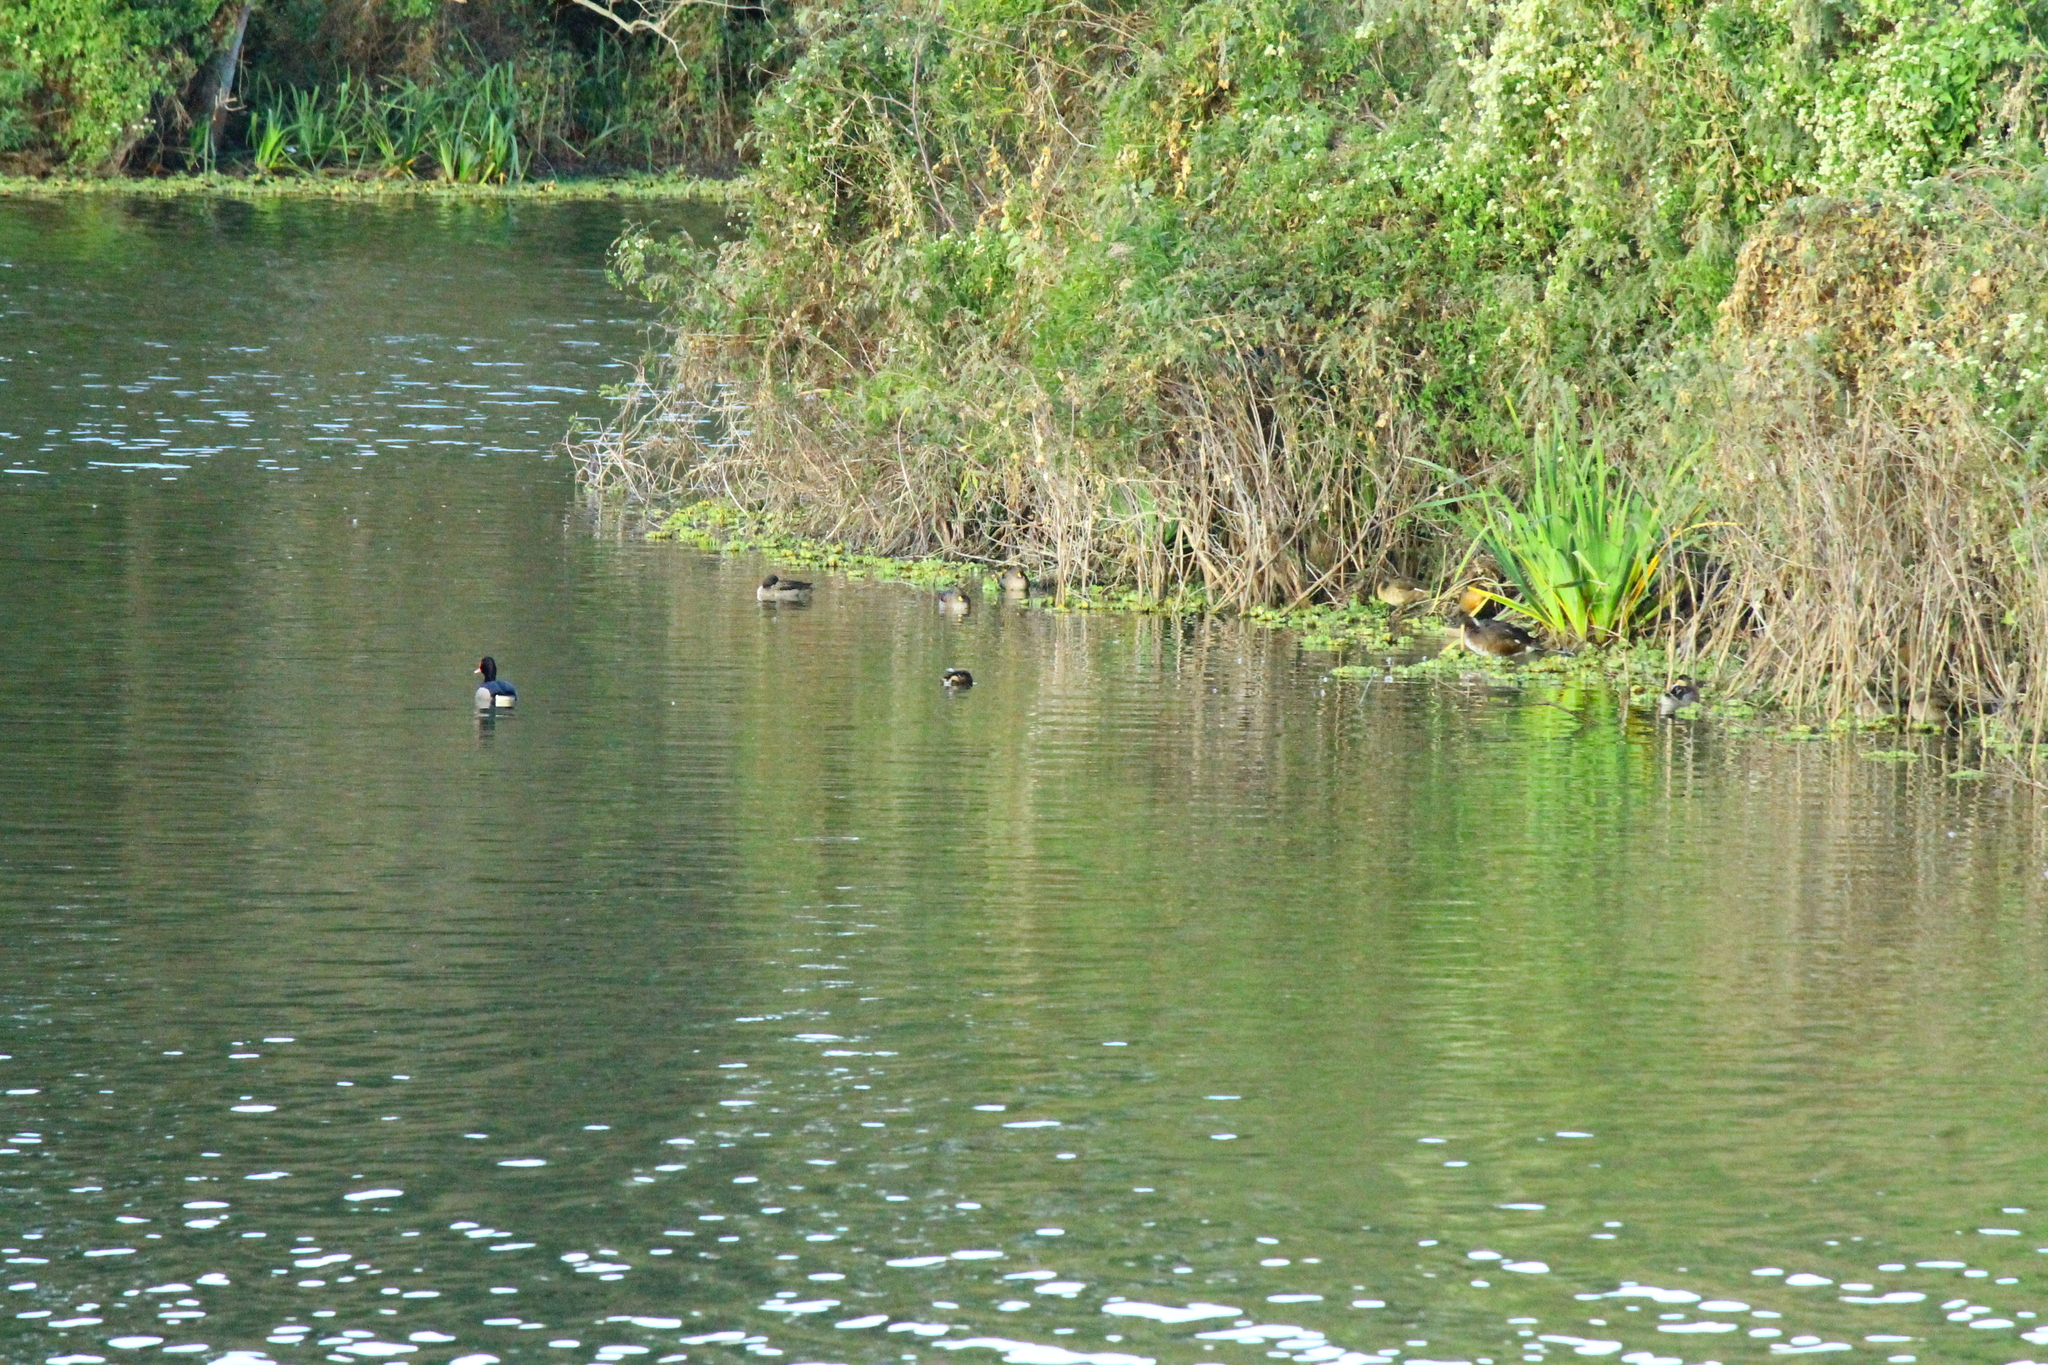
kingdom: Animalia
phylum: Chordata
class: Aves
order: Podicipediformes
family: Podicipedidae
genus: Rollandia
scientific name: Rollandia rolland
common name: White-tufted grebe
